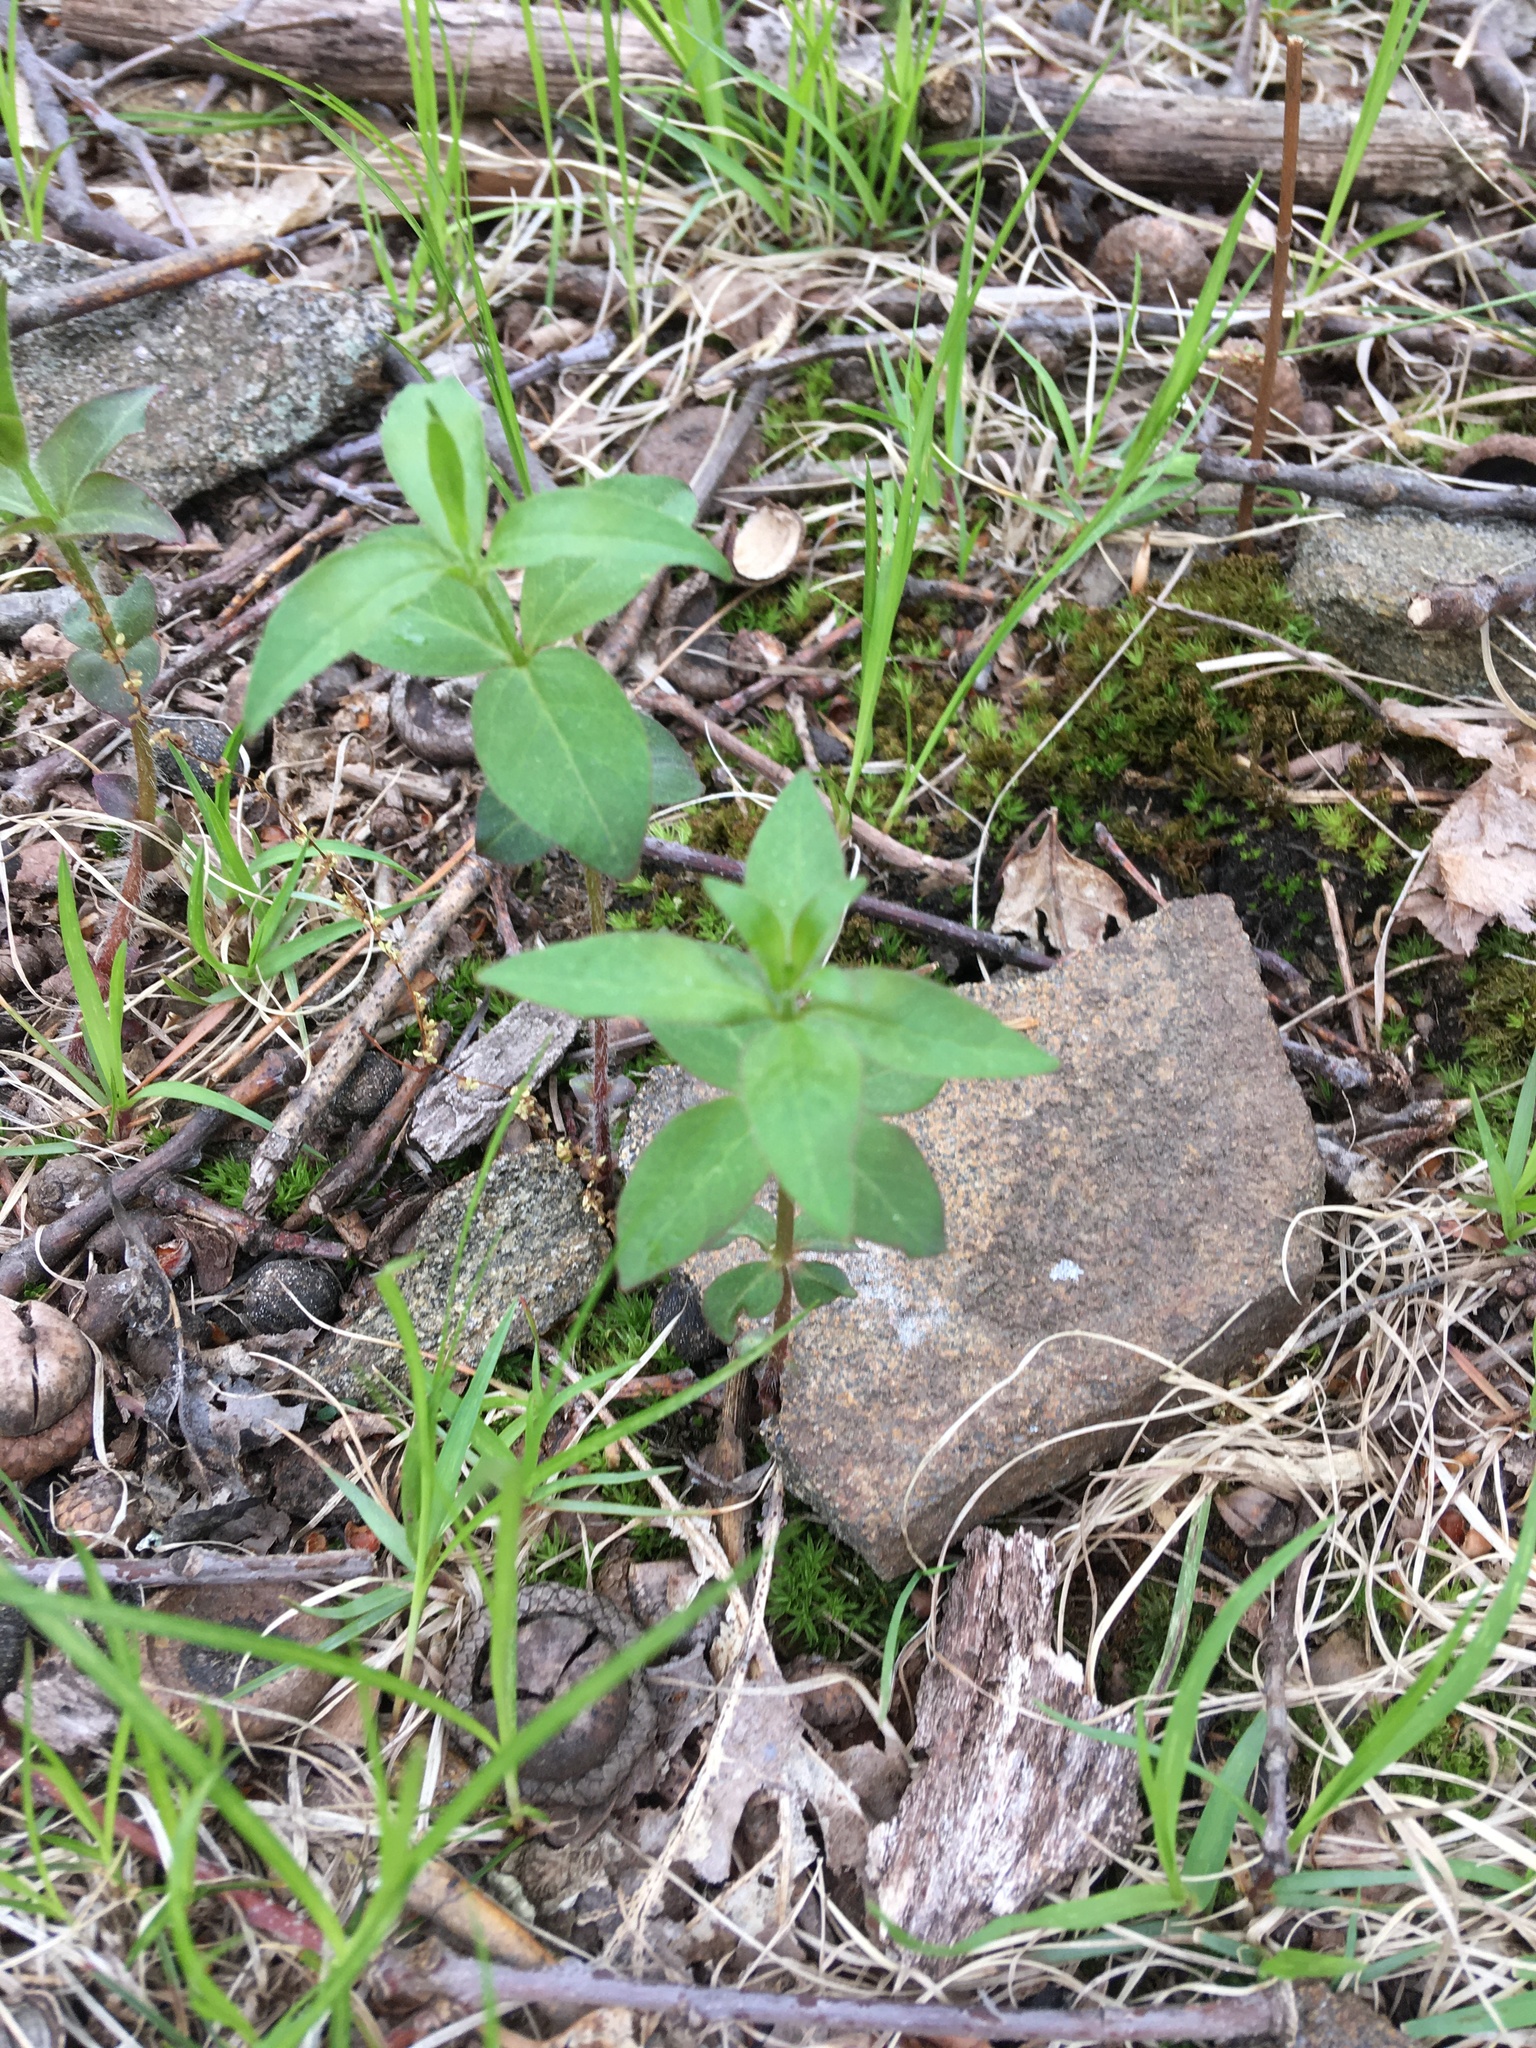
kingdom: Plantae
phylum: Tracheophyta
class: Magnoliopsida
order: Ericales
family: Primulaceae
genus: Lysimachia
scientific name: Lysimachia quadrifolia
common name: Whorled loosestrife
